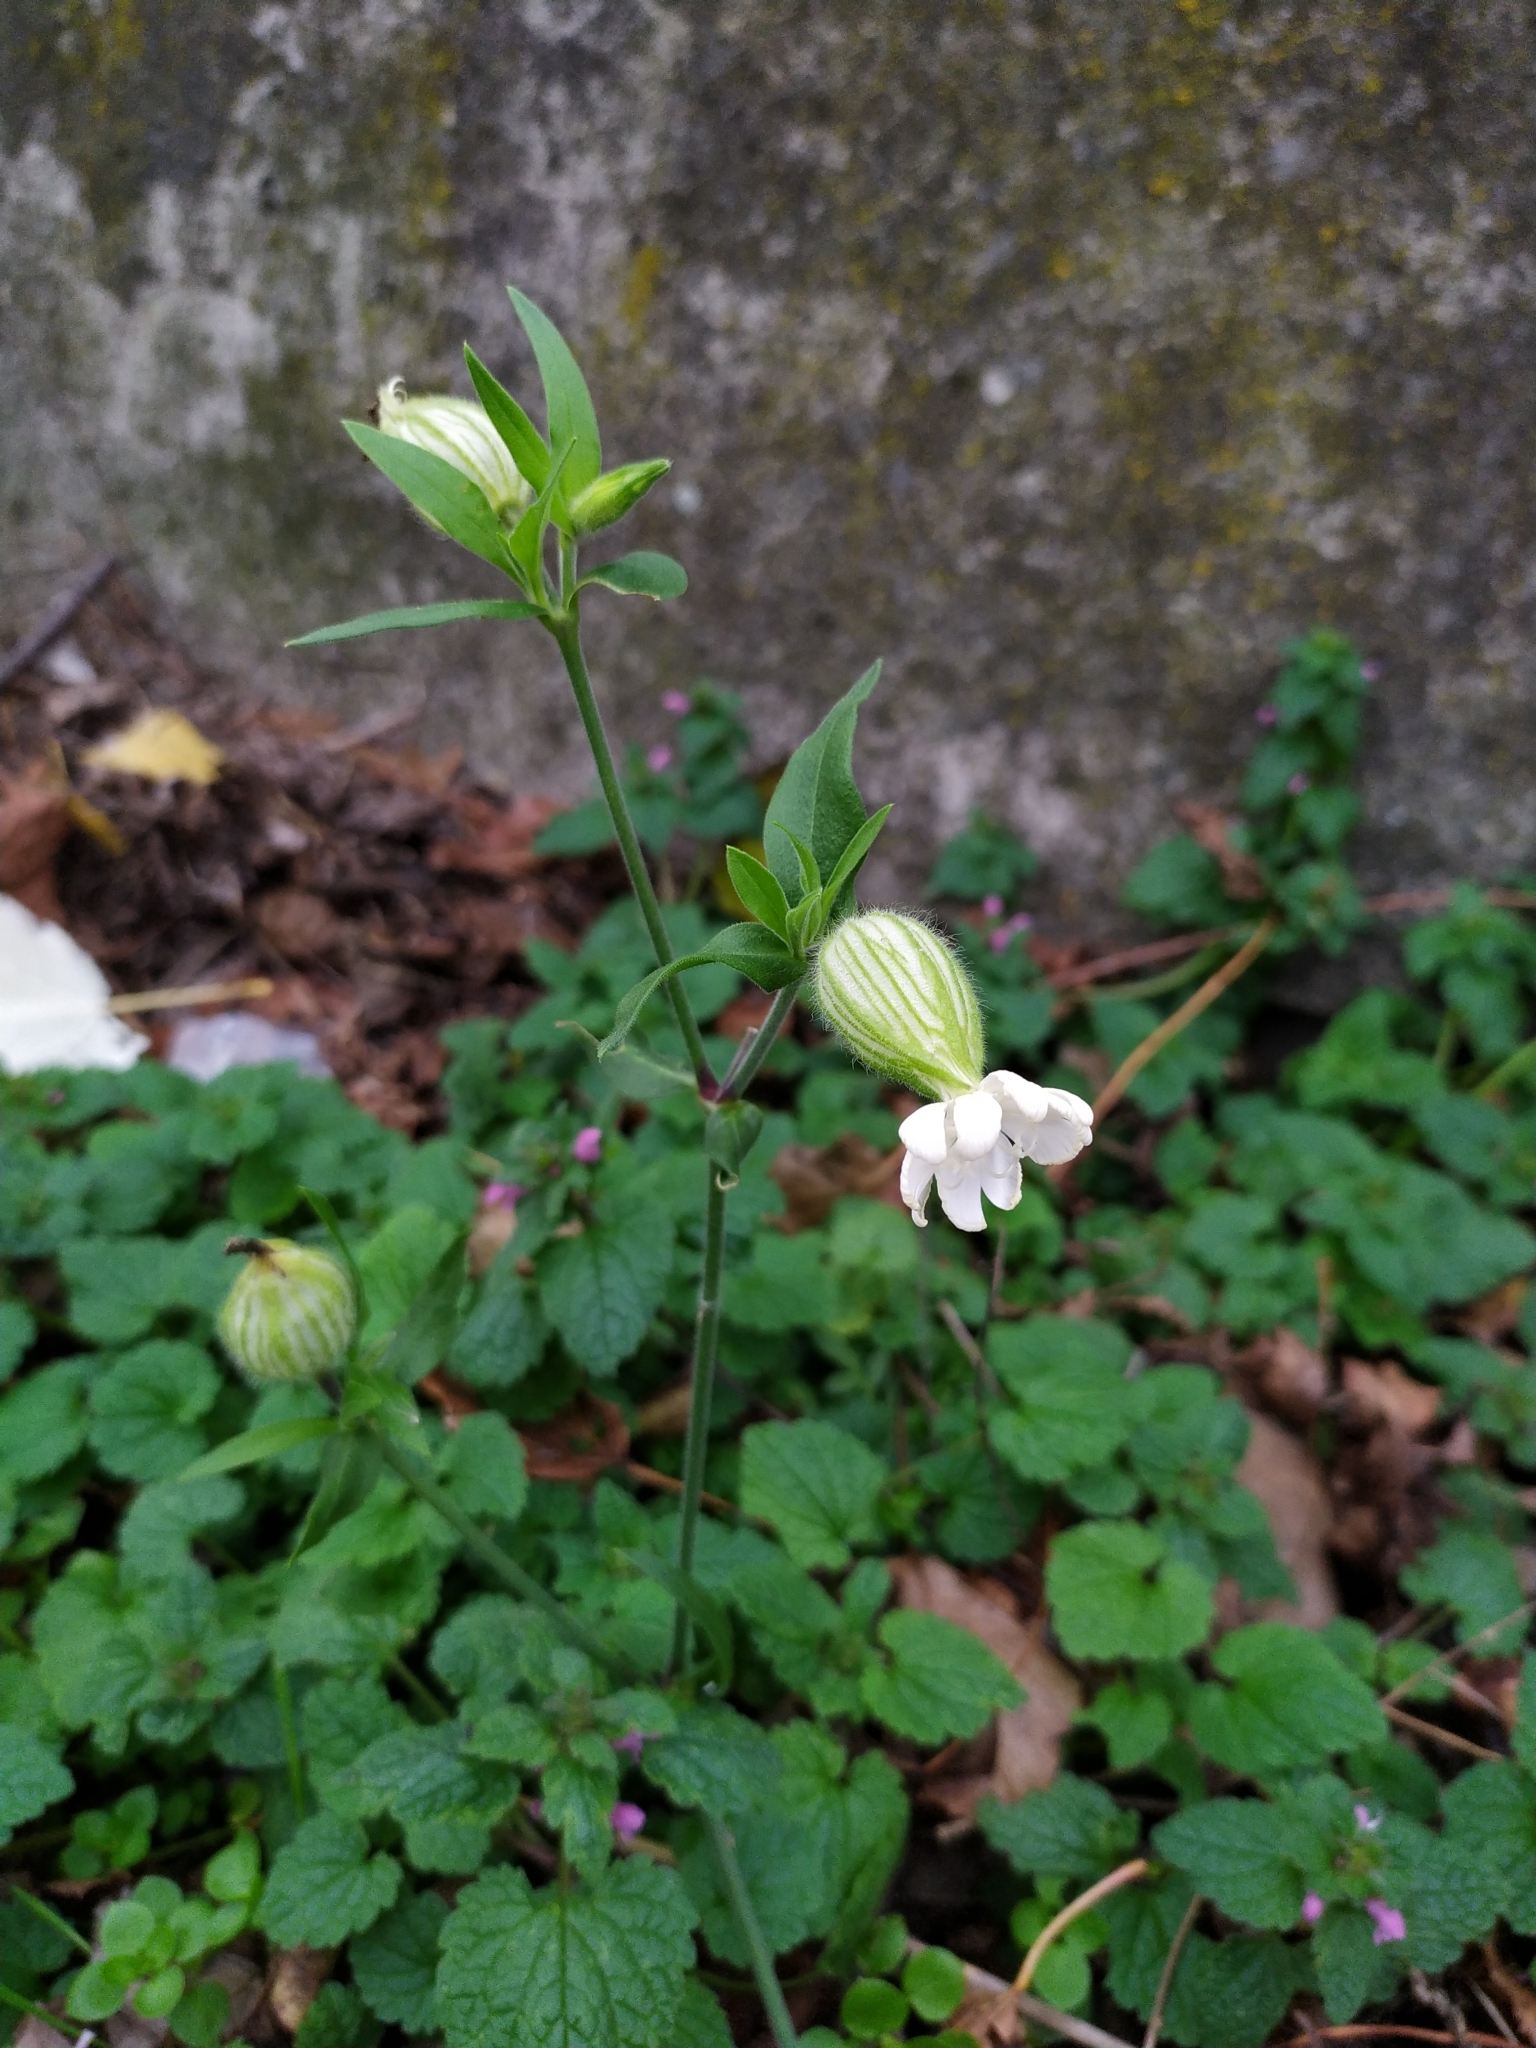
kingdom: Plantae
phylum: Tracheophyta
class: Magnoliopsida
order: Caryophyllales
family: Caryophyllaceae
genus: Silene
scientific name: Silene latifolia
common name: White campion
